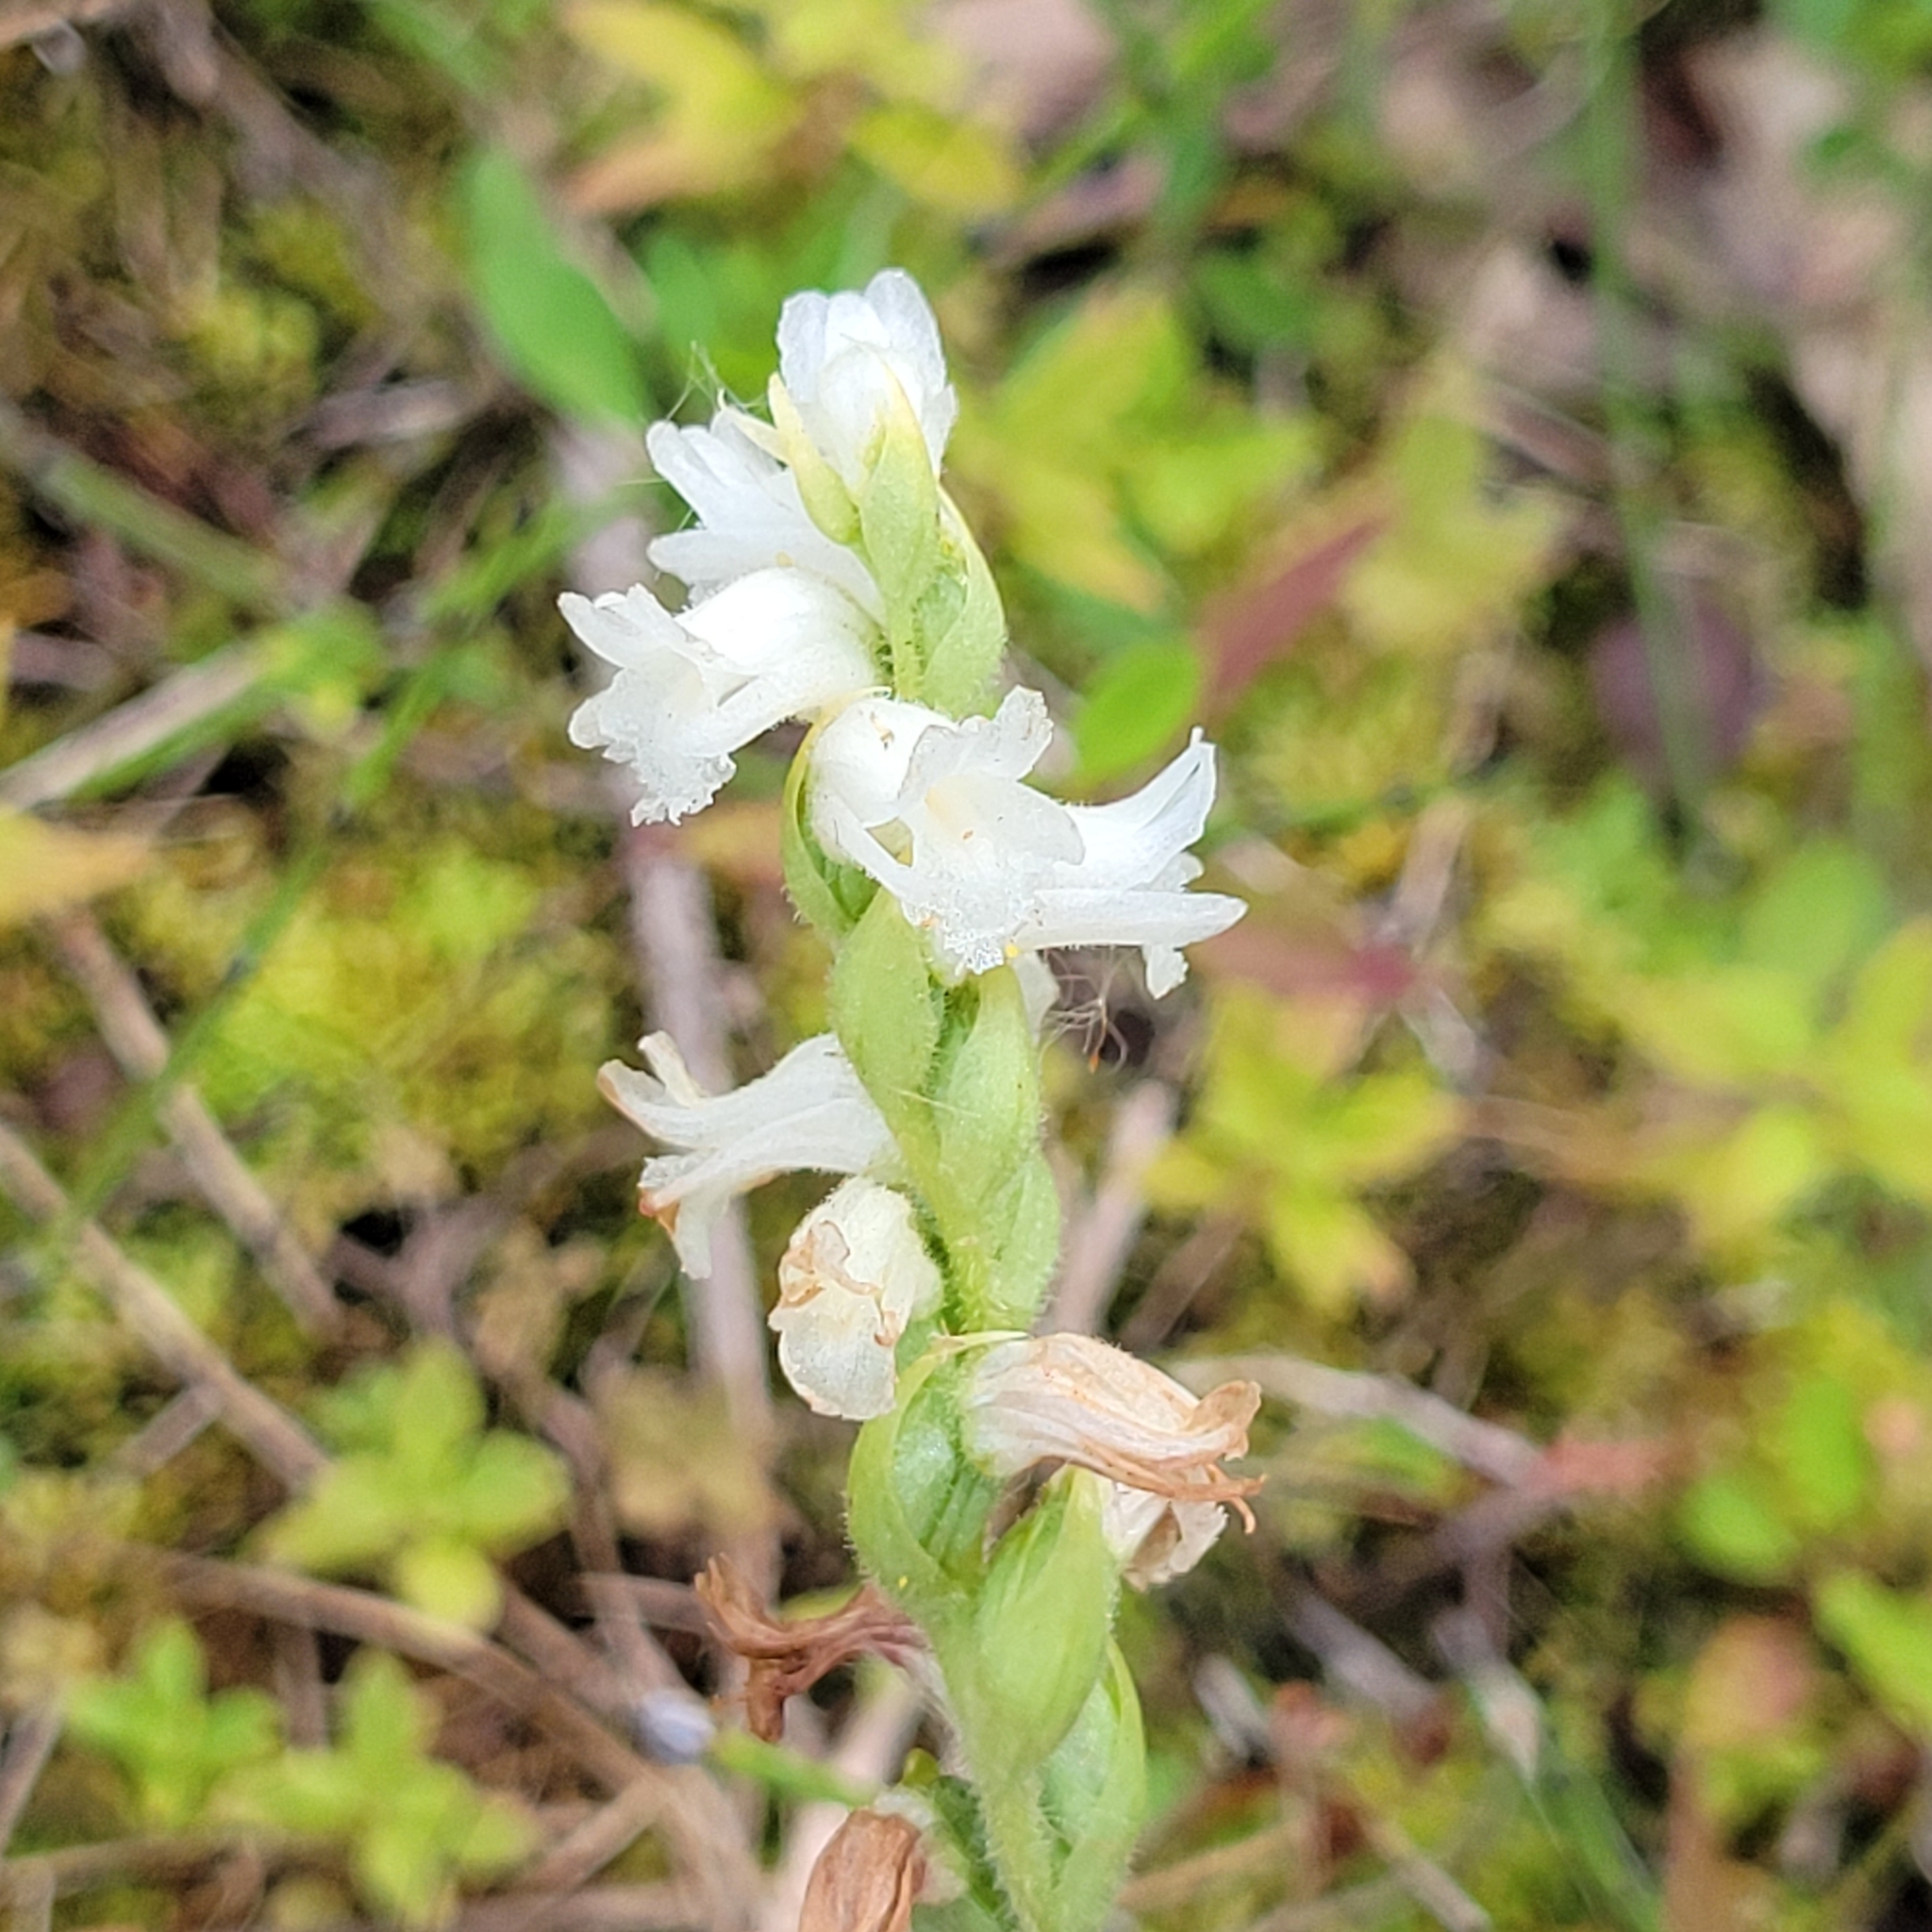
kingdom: Plantae
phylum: Tracheophyta
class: Liliopsida
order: Asparagales
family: Orchidaceae
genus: Spiranthes
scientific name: Spiranthes arcisepala
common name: Appalachian ladies'-tresses
